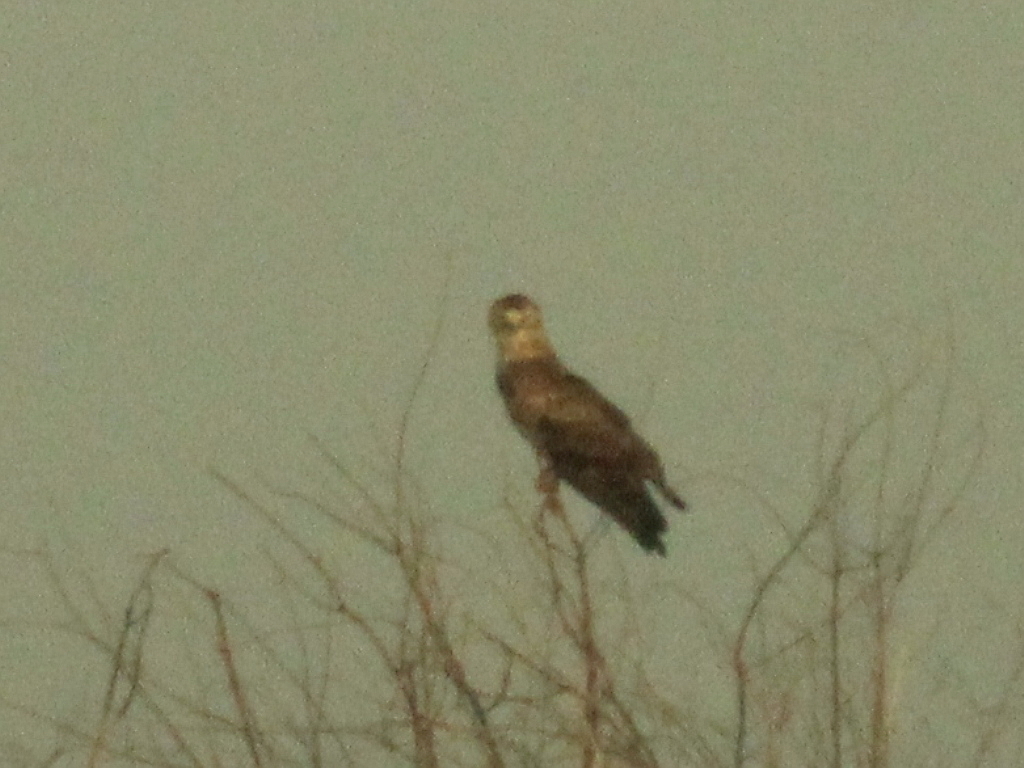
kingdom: Animalia
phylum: Chordata
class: Aves
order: Accipitriformes
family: Accipitridae
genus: Circaetus
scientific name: Circaetus gallicus
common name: Short-toed snake eagle
